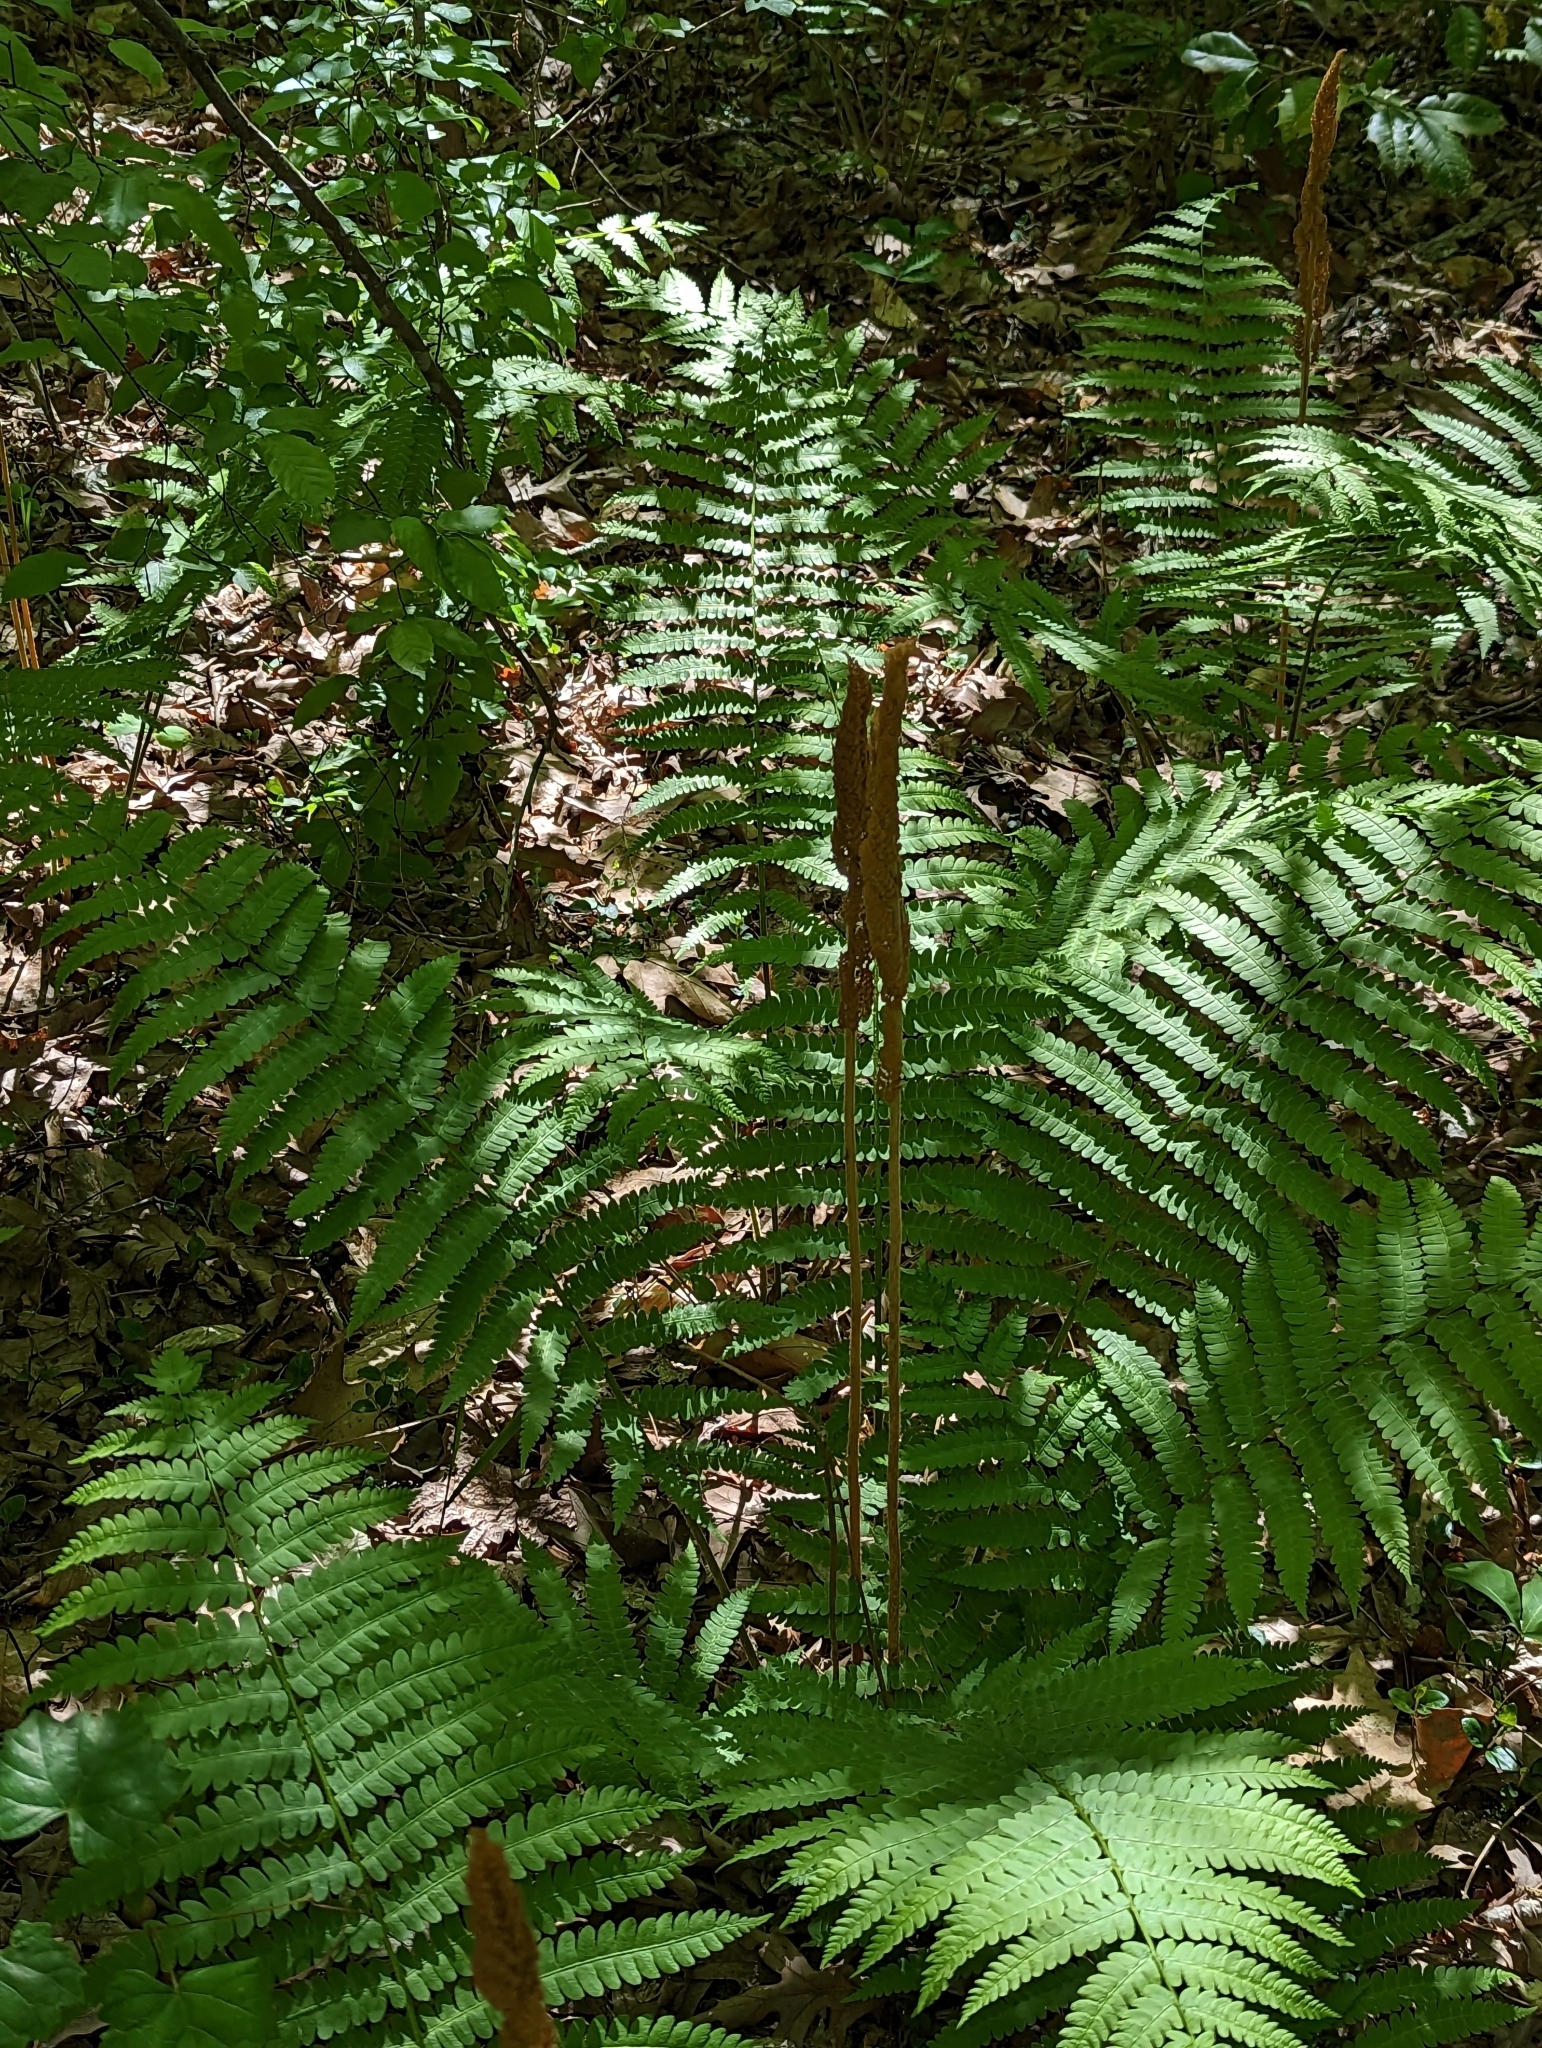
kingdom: Plantae
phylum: Tracheophyta
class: Polypodiopsida
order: Osmundales
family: Osmundaceae
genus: Osmundastrum
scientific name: Osmundastrum cinnamomeum
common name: Cinnamon fern
